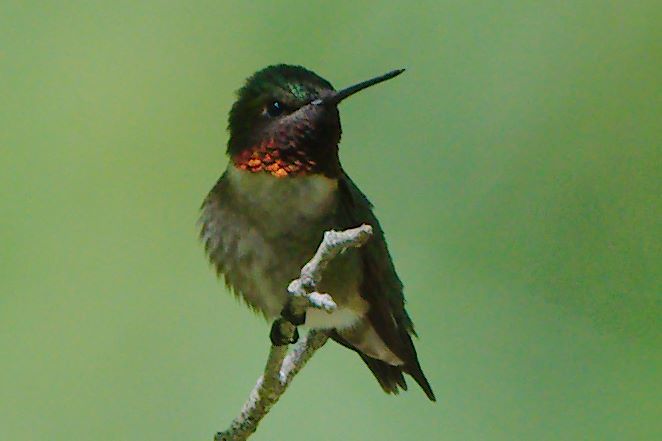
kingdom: Animalia
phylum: Chordata
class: Aves
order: Apodiformes
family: Trochilidae
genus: Archilochus
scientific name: Archilochus colubris
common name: Ruby-throated hummingbird
